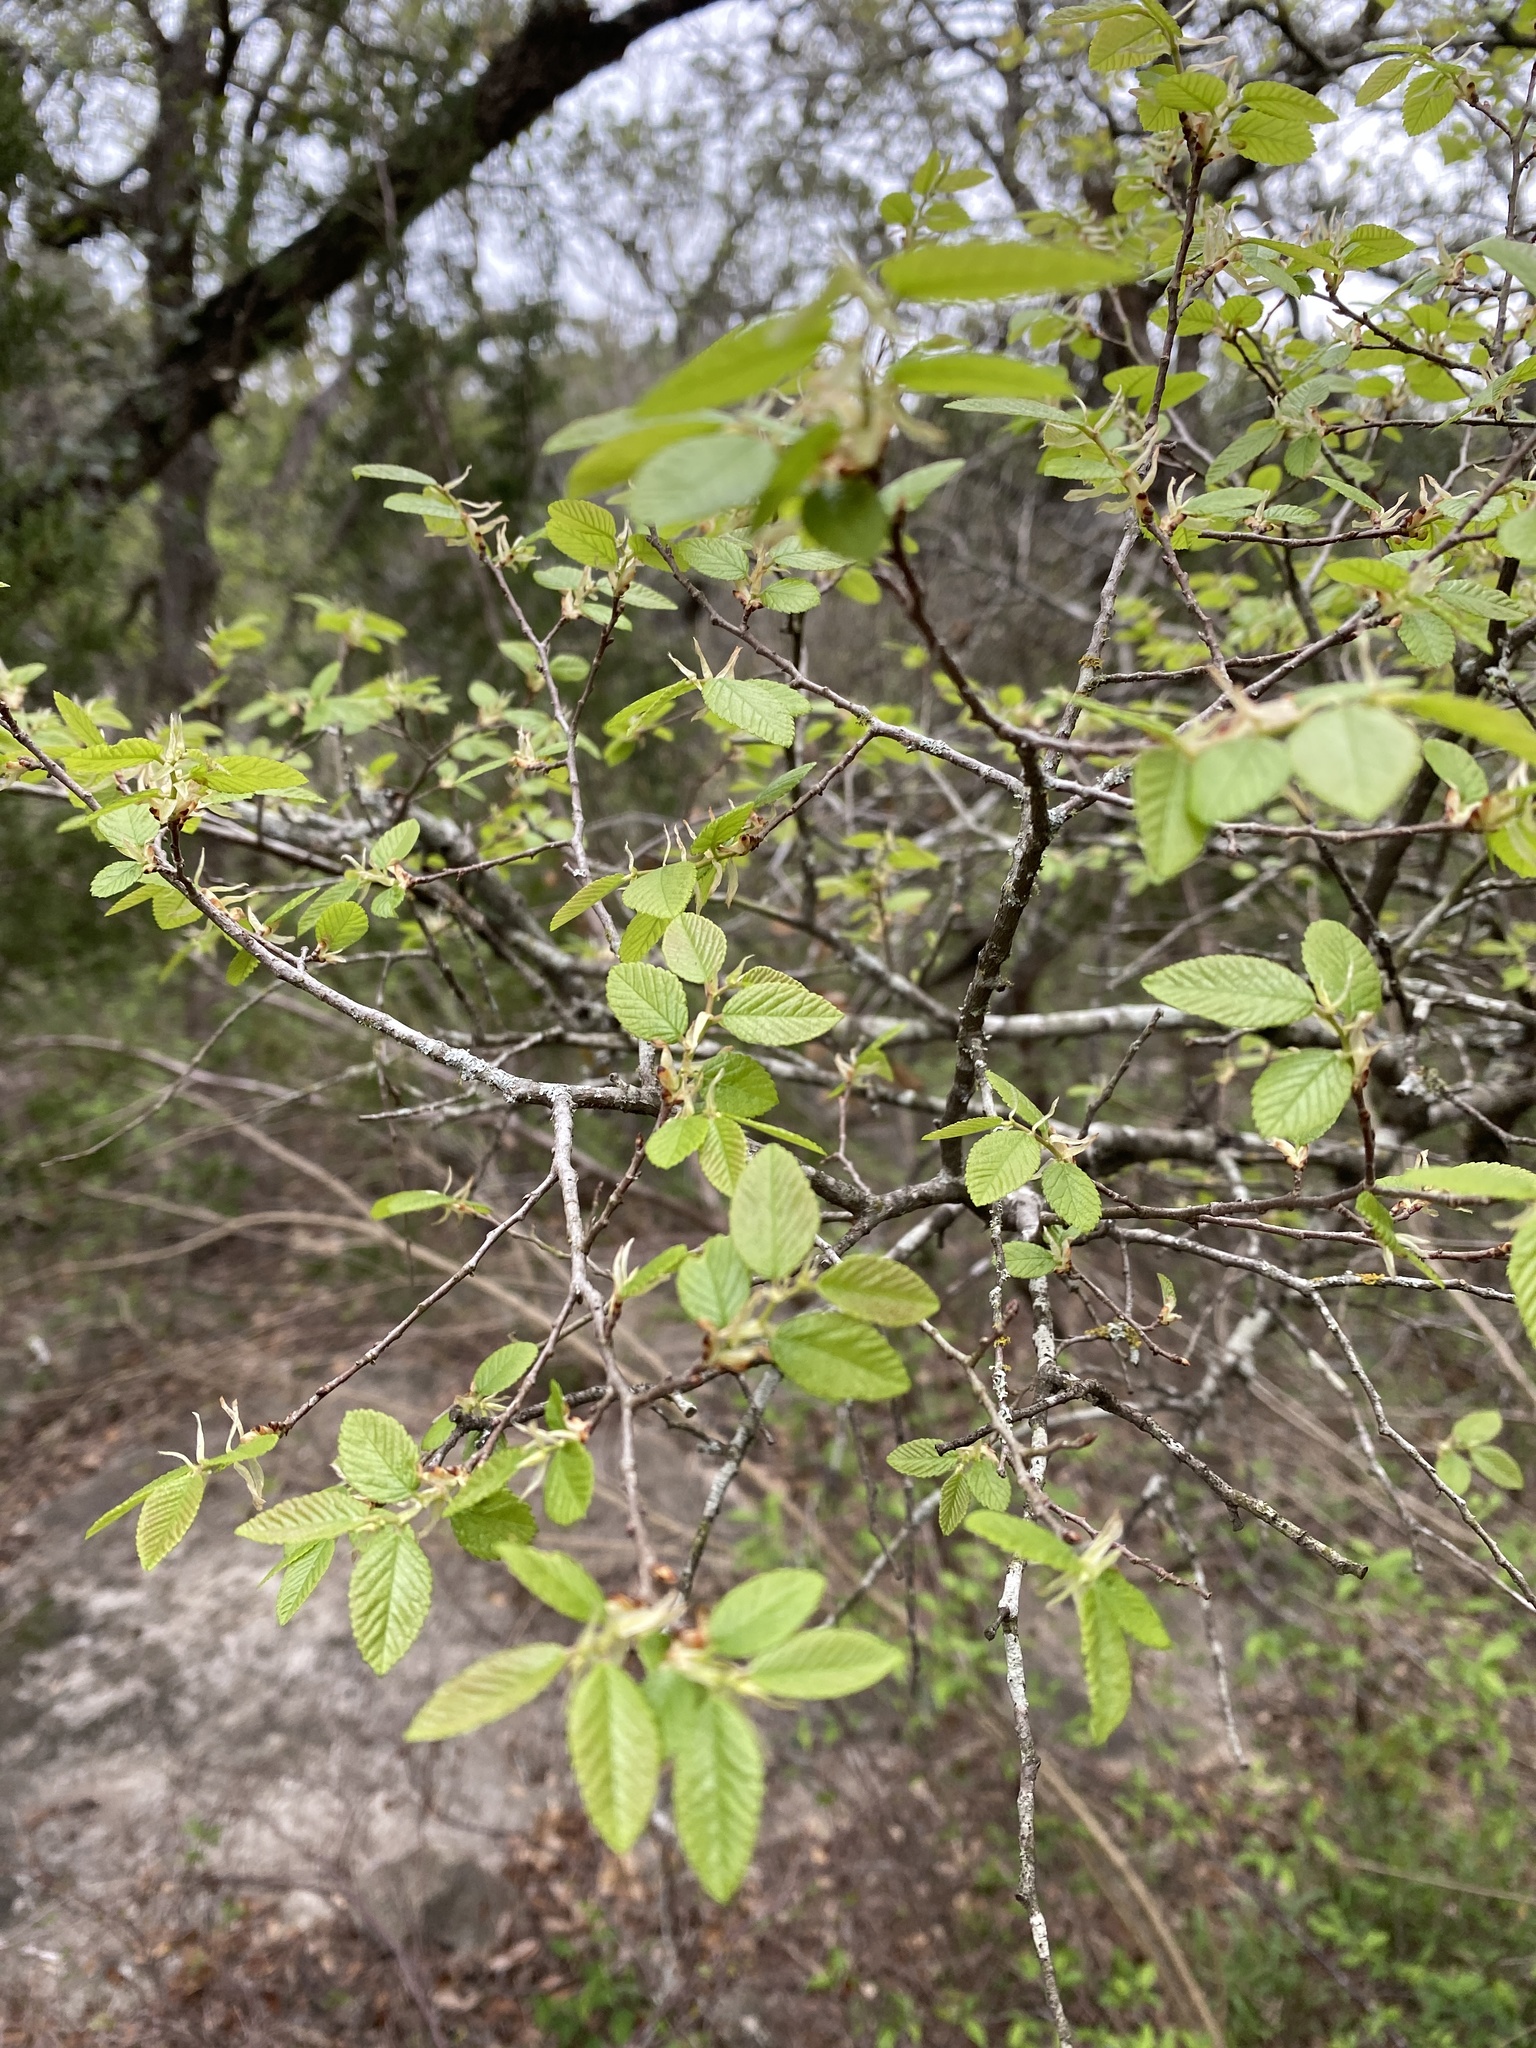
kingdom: Plantae
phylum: Tracheophyta
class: Magnoliopsida
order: Rosales
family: Ulmaceae
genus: Ulmus
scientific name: Ulmus crassifolia
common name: Basket elm
